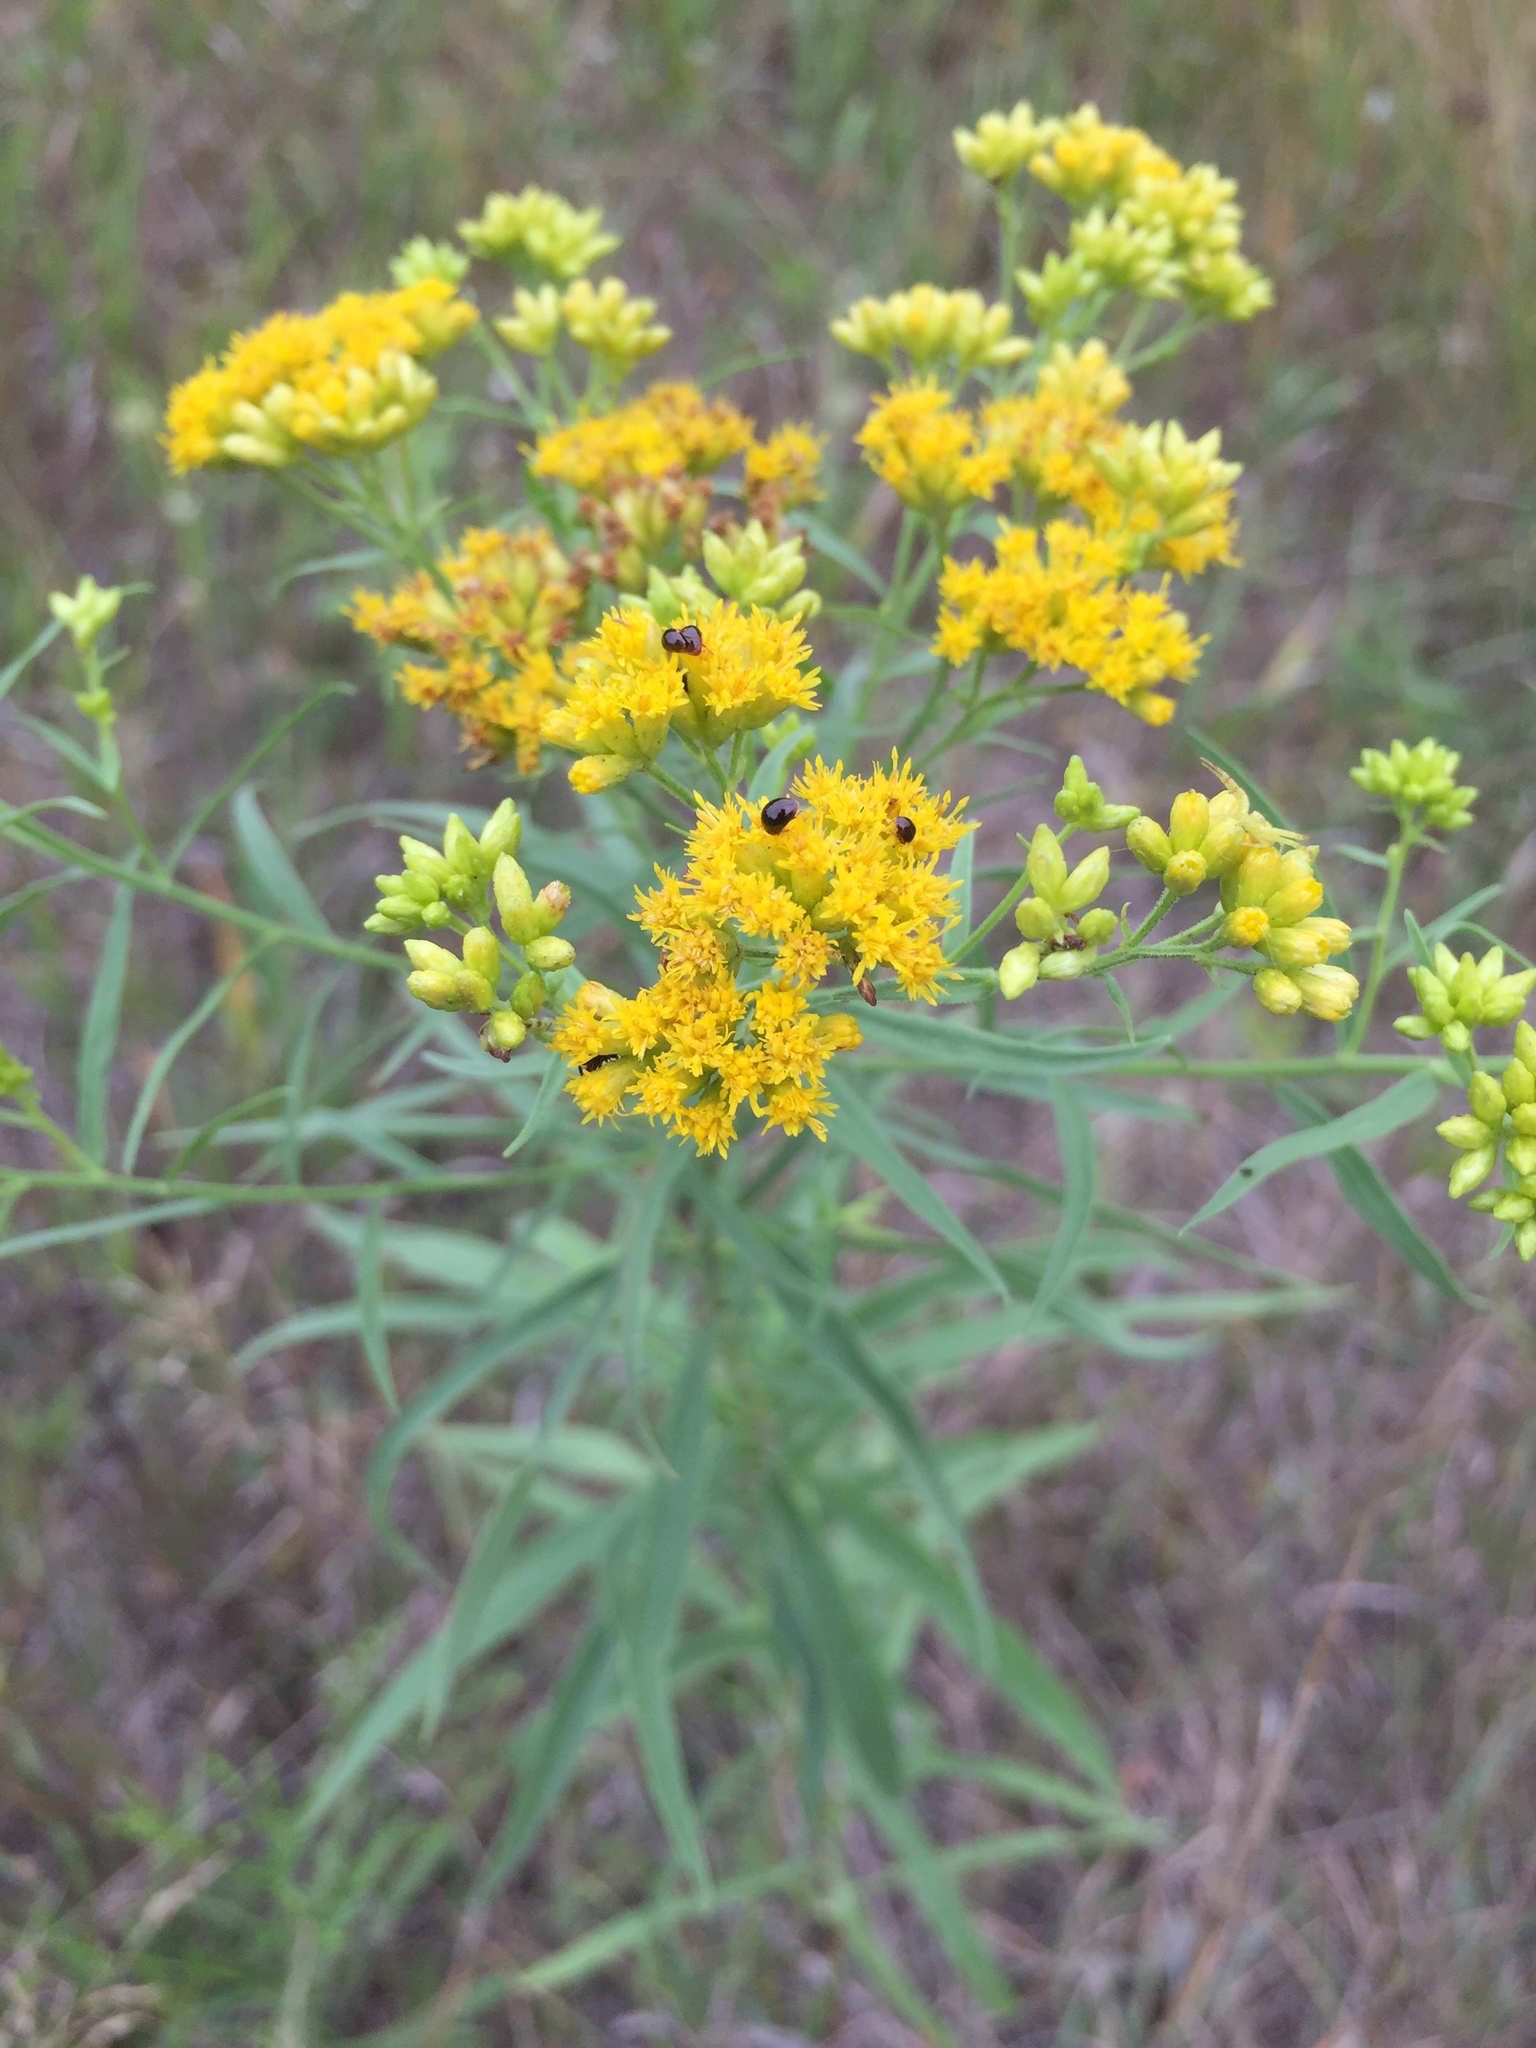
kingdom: Plantae
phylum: Tracheophyta
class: Magnoliopsida
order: Asterales
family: Asteraceae
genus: Euthamia
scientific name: Euthamia graminifolia
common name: Common goldentop
